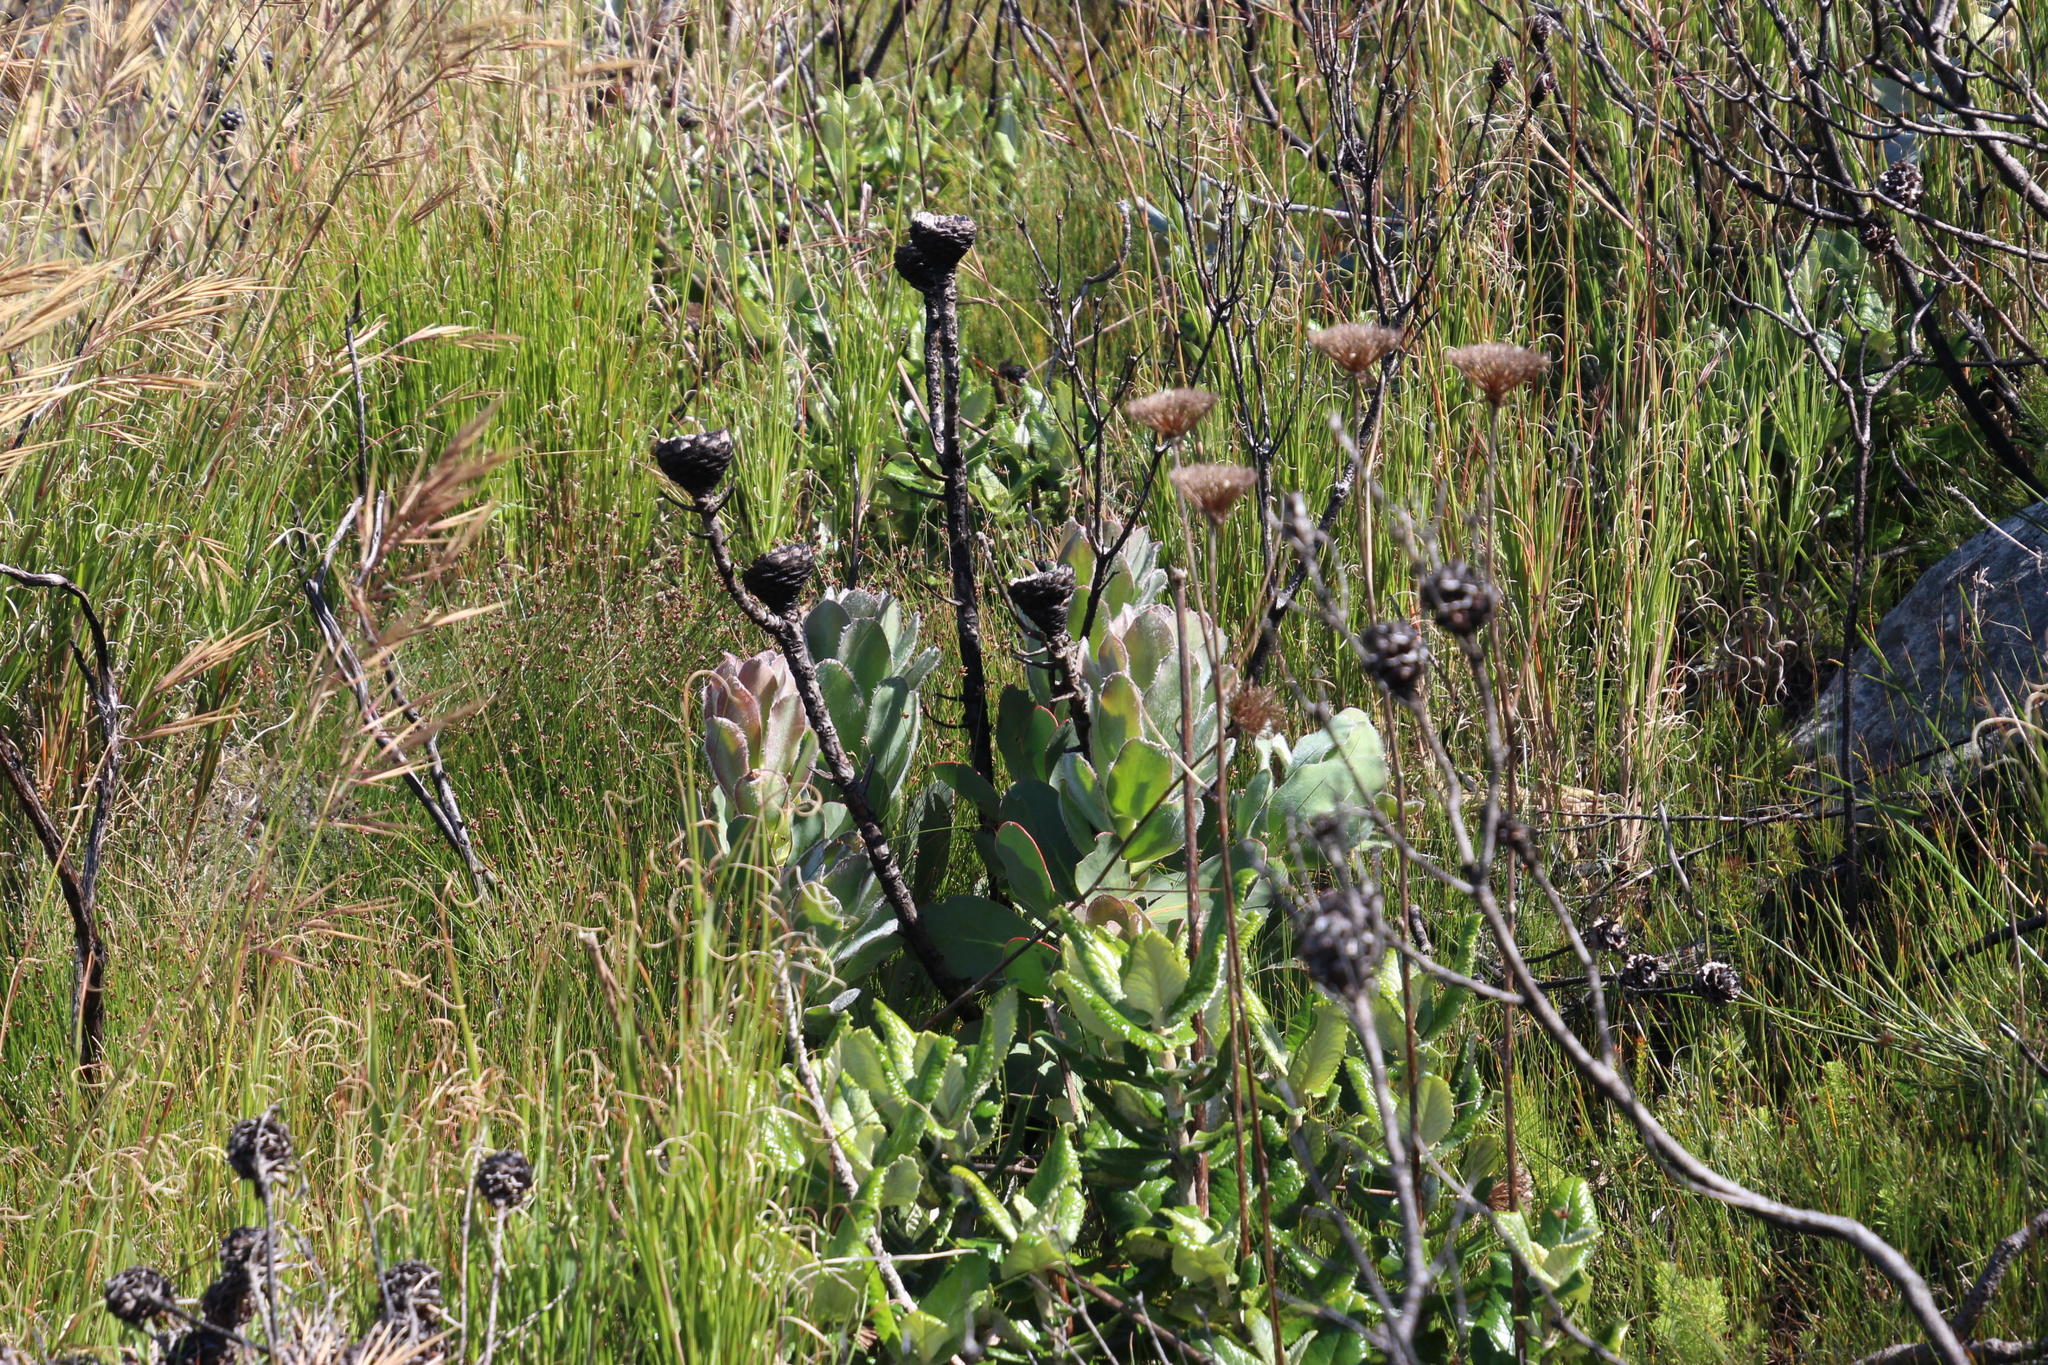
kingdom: Plantae
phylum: Tracheophyta
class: Magnoliopsida
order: Proteales
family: Proteaceae
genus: Protea
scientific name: Protea speciosa
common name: Brown-beard sugarbush
